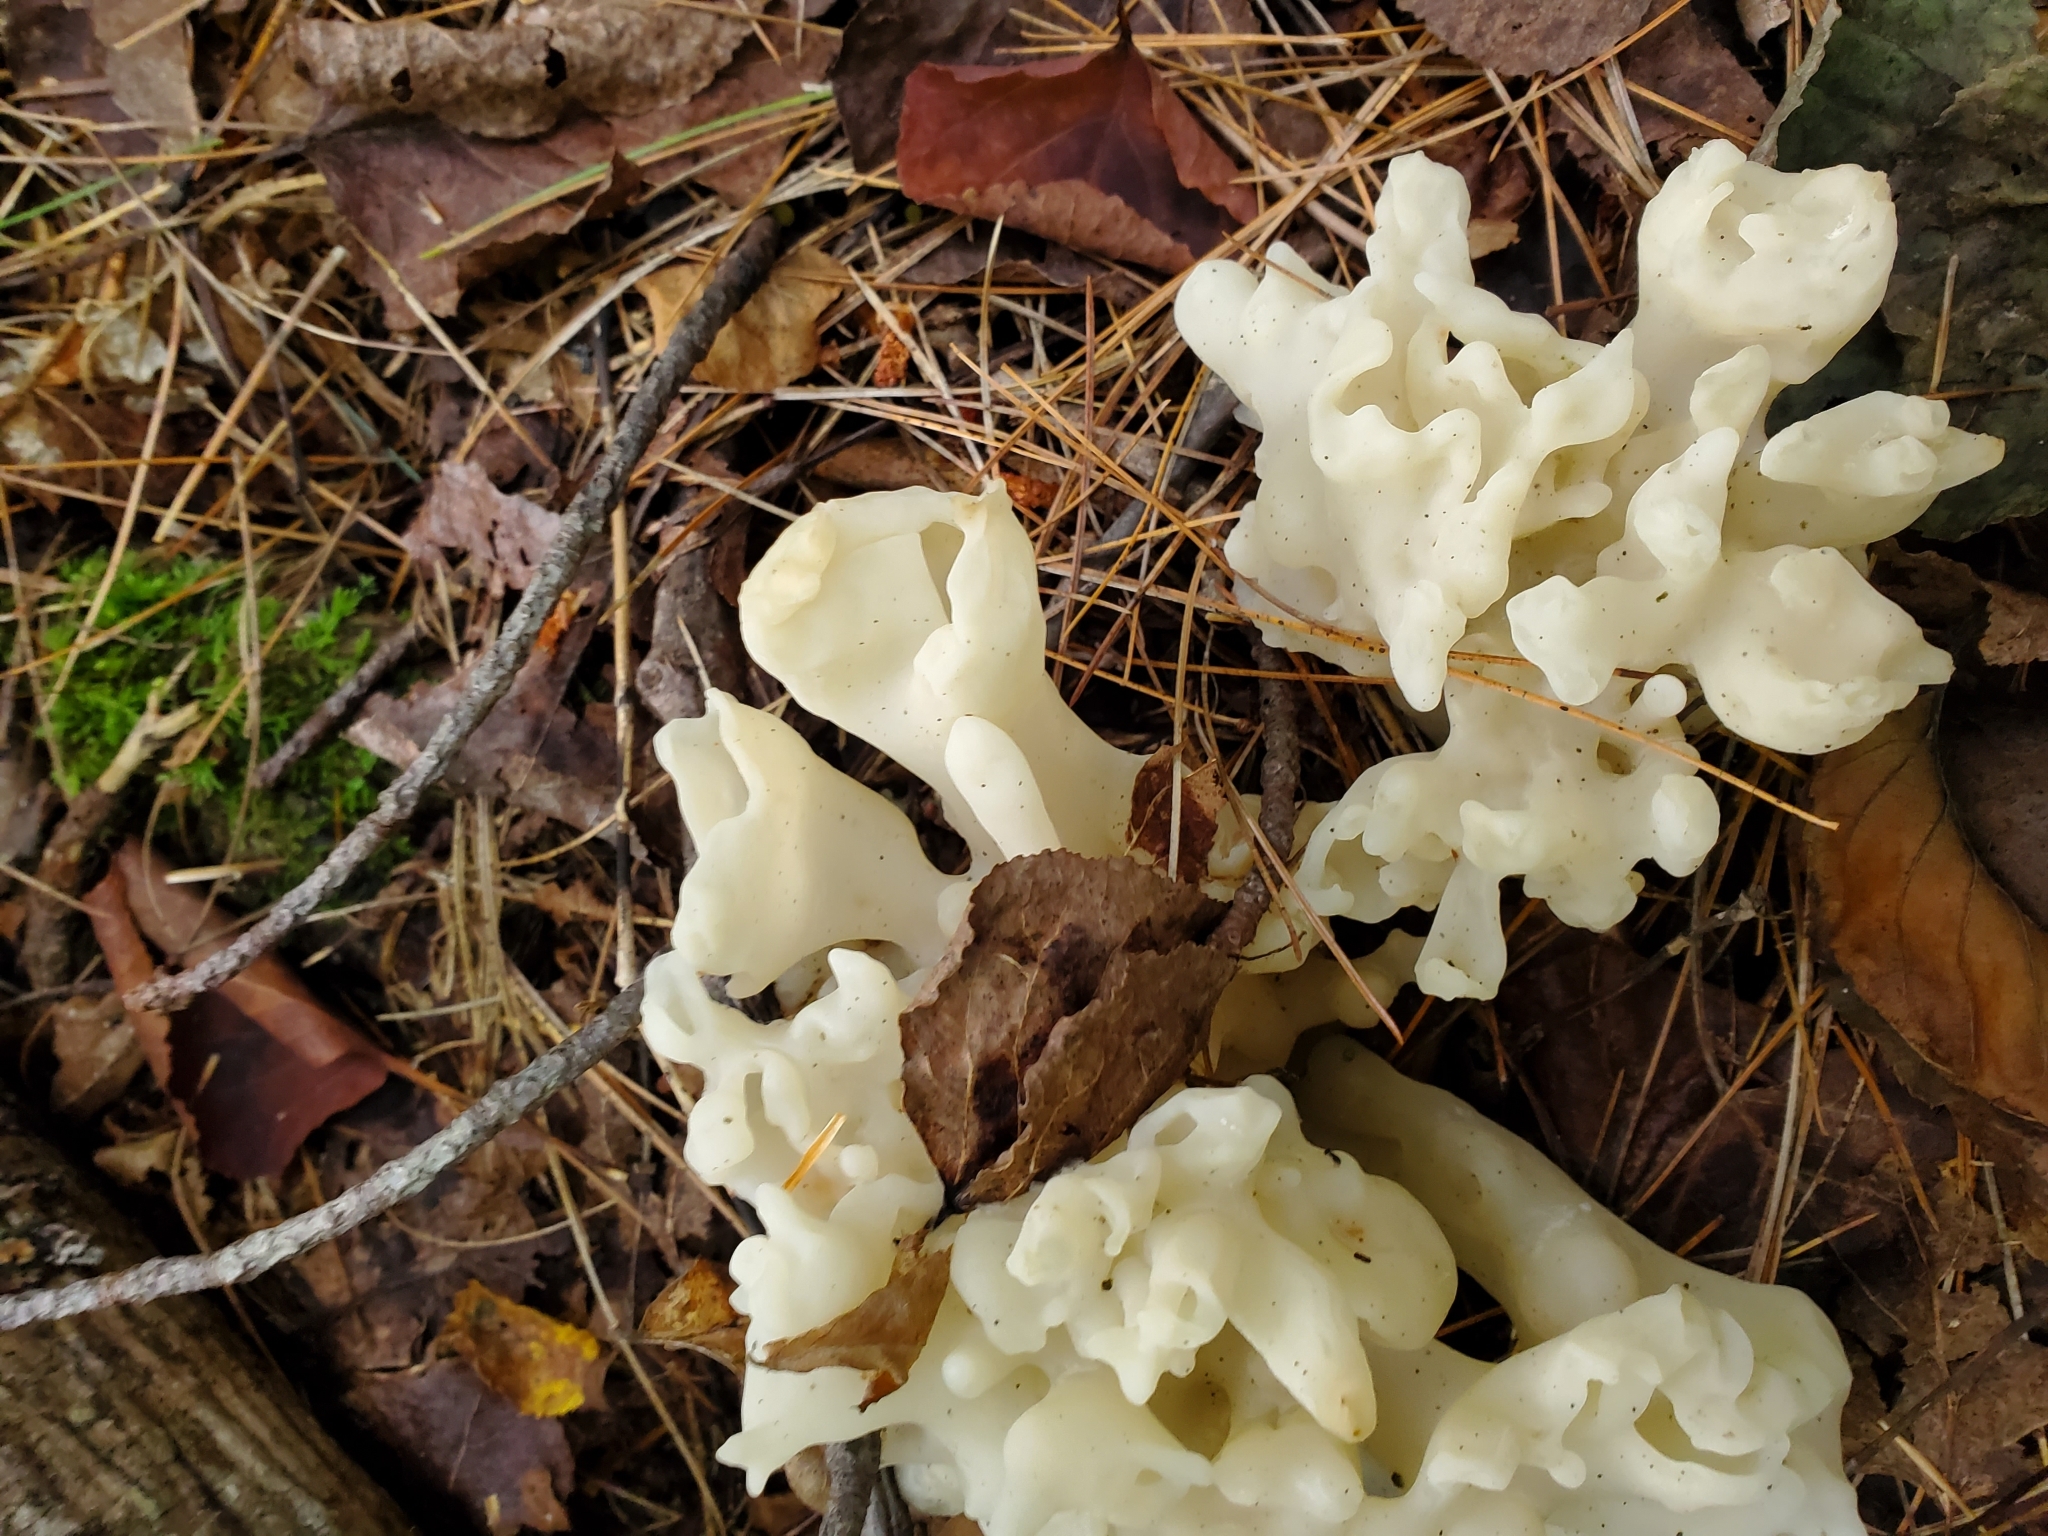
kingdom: Fungi
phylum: Basidiomycota
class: Agaricomycetes
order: Sebacinales
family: Sebacinaceae
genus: Sebacina
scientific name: Sebacina sparassoidea
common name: White coral jelly fungus
